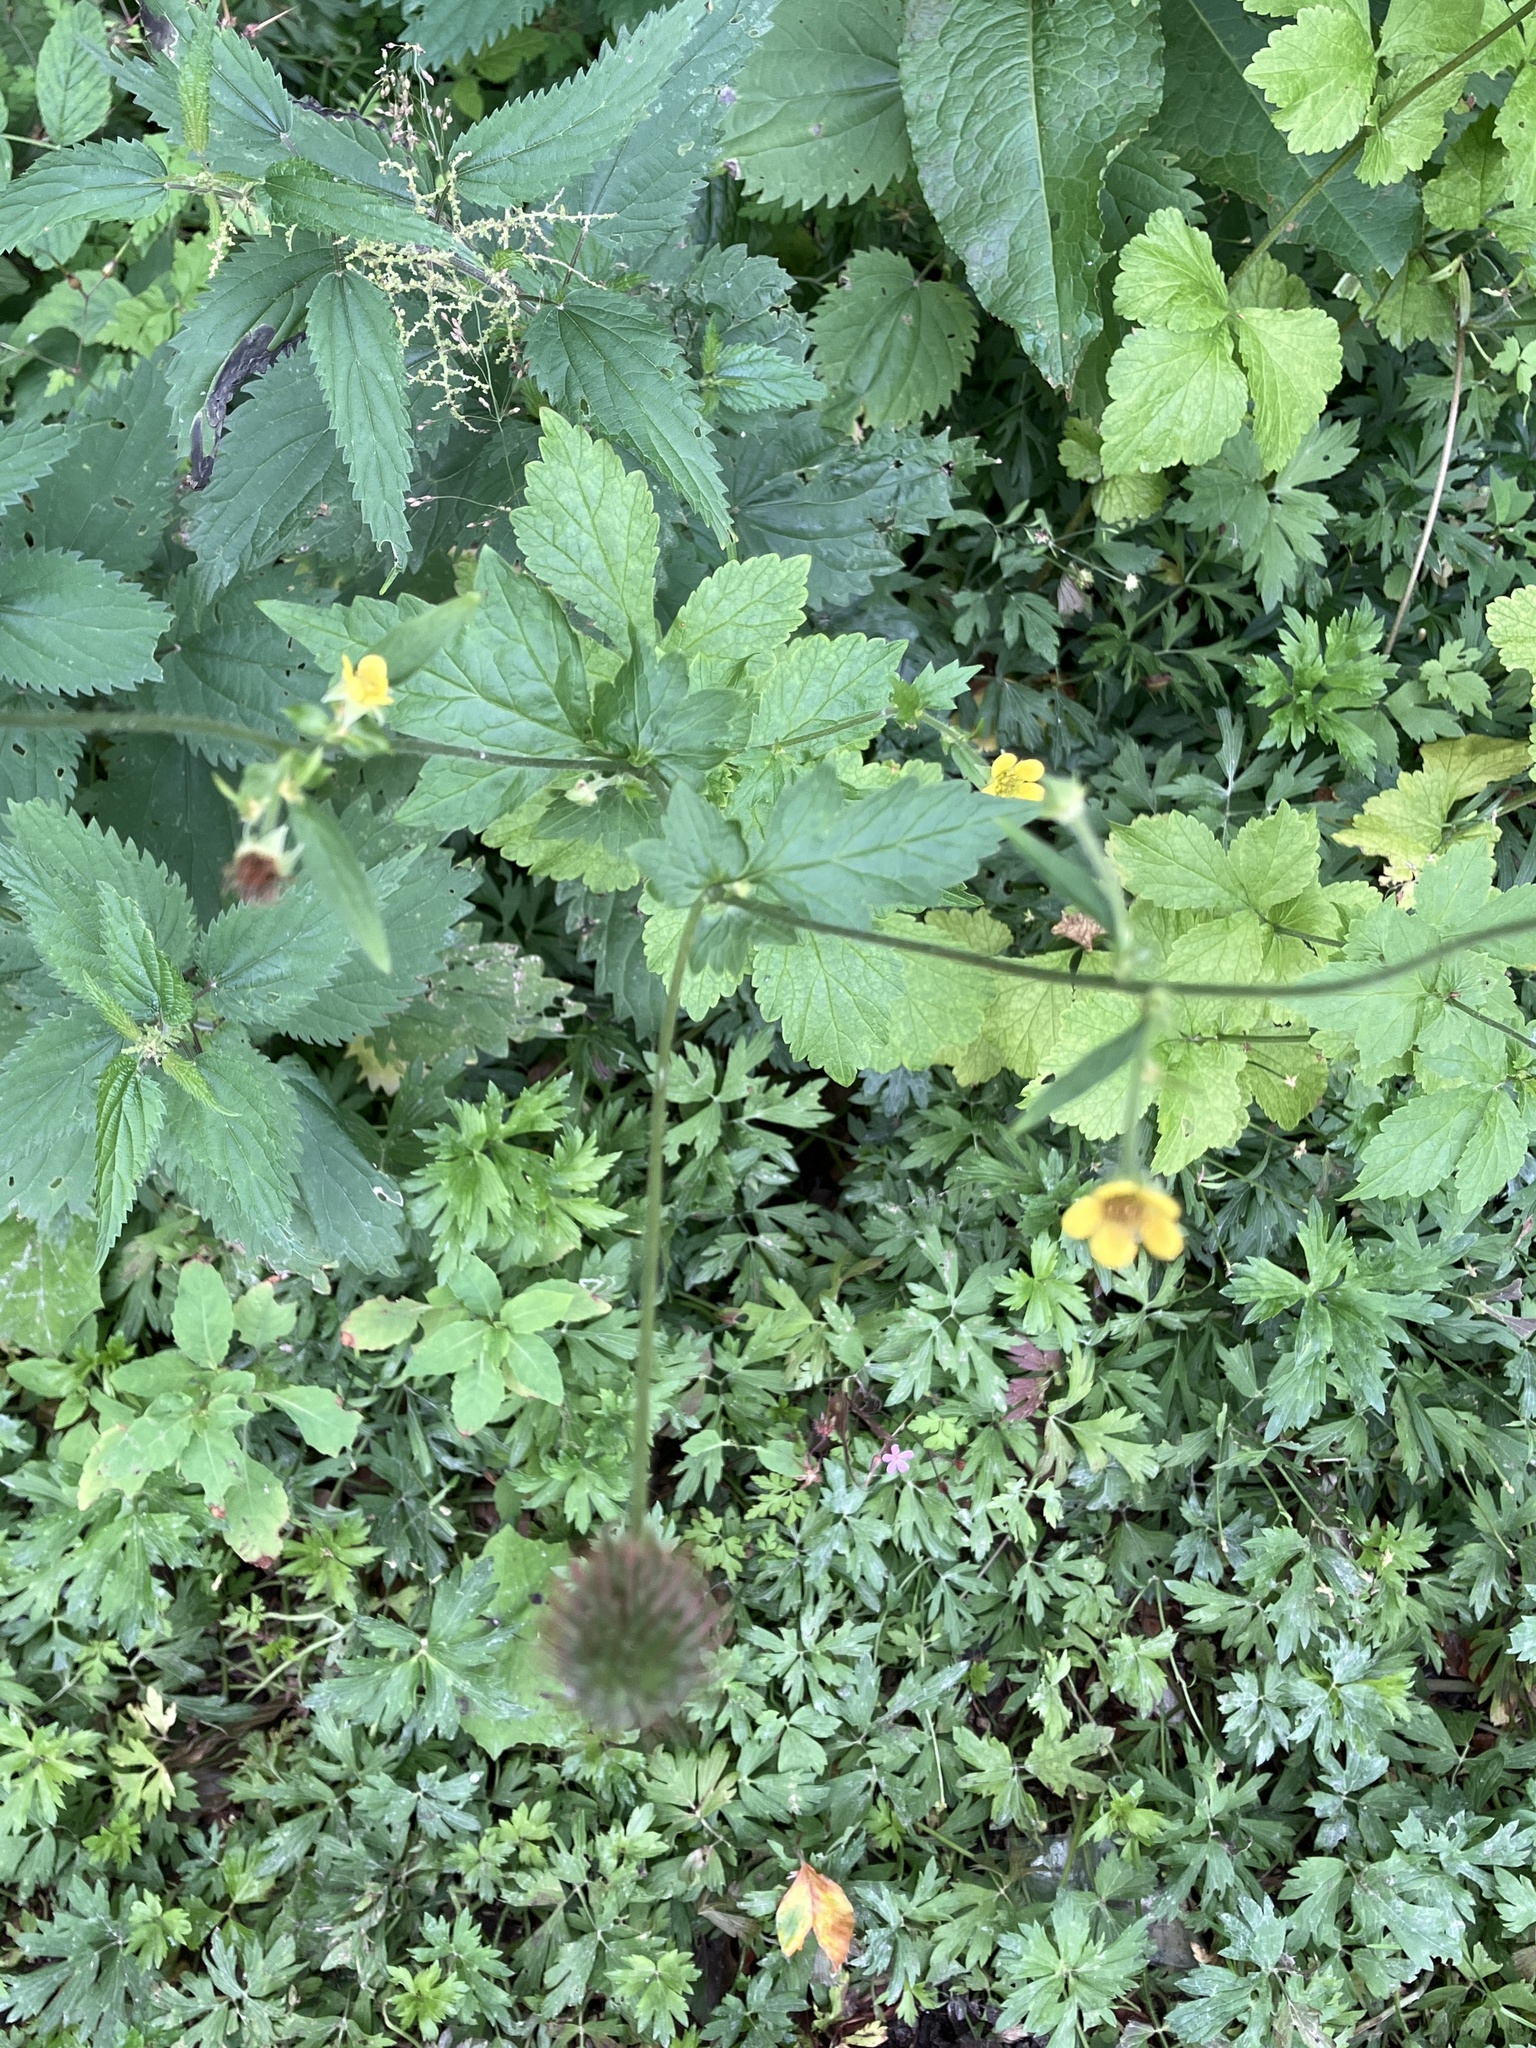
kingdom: Plantae
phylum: Tracheophyta
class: Magnoliopsida
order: Rosales
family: Rosaceae
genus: Geum
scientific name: Geum urbanum
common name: Wood avens
